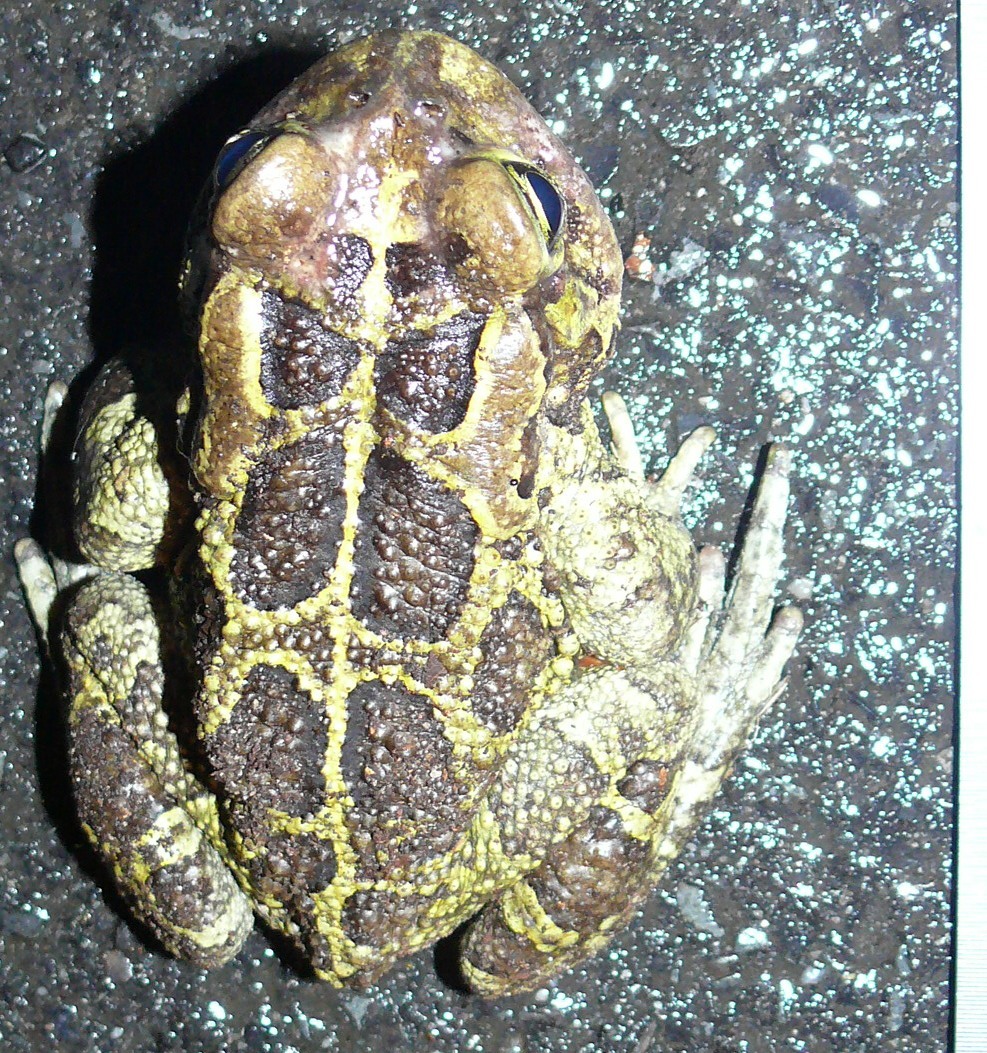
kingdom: Animalia
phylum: Chordata
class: Amphibia
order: Anura
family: Bufonidae
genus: Sclerophrys
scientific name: Sclerophrys pantherina
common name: Panther toad
